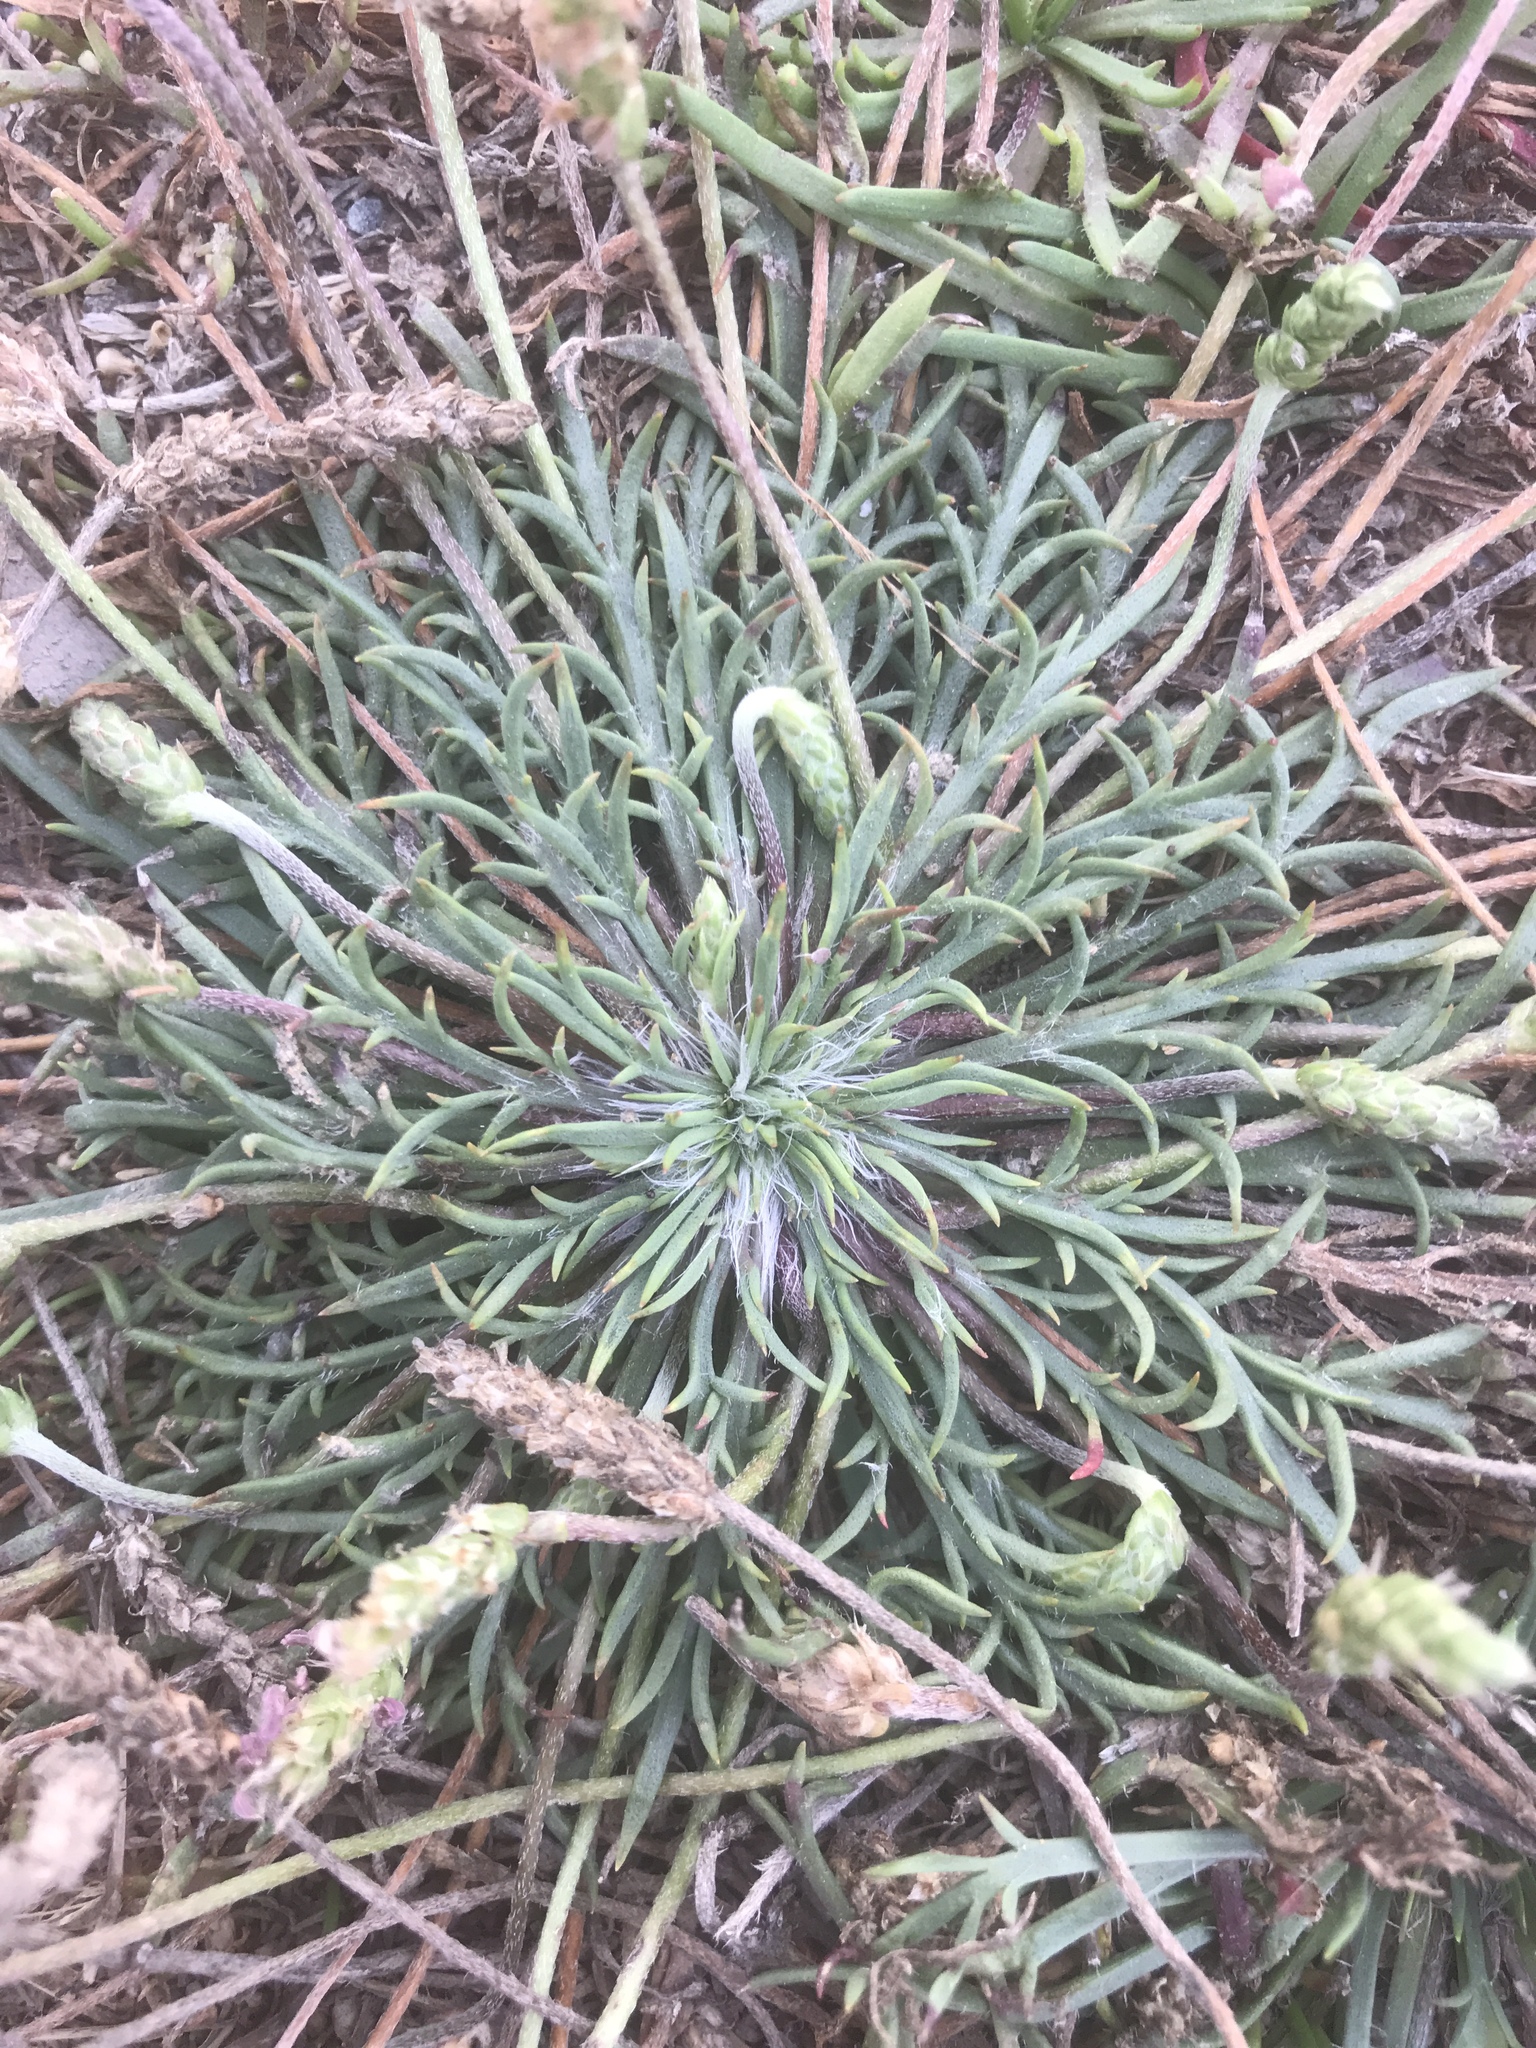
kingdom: Plantae
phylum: Tracheophyta
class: Magnoliopsida
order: Lamiales
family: Plantaginaceae
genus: Plantago
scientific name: Plantago coronopus
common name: Buck's-horn plantain
